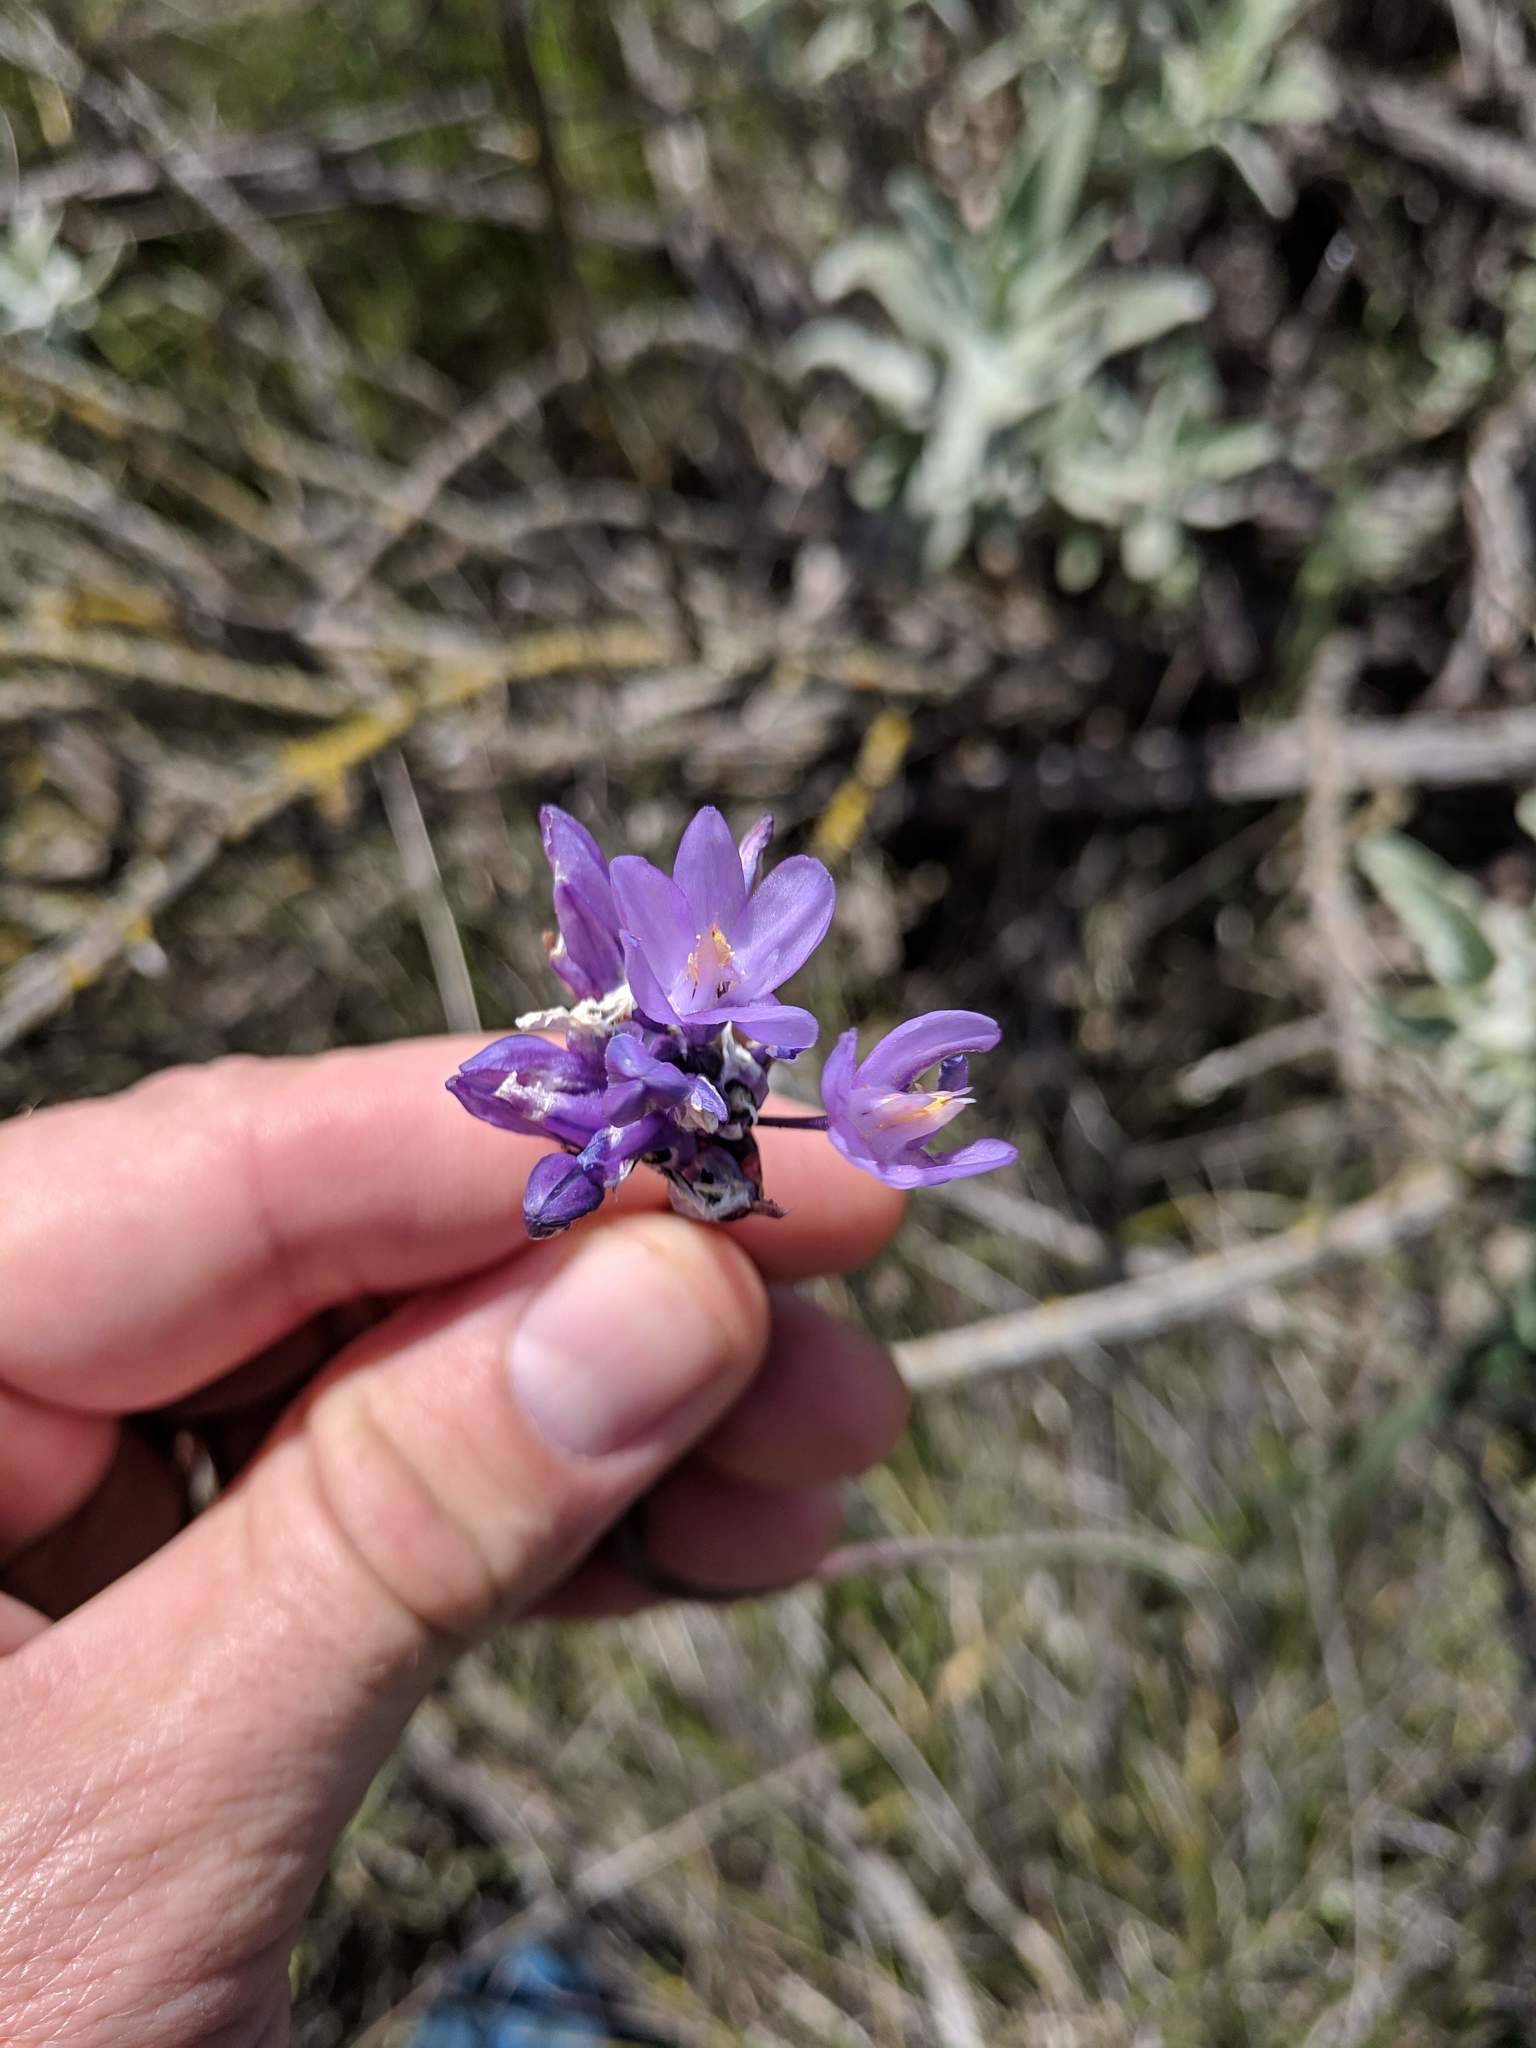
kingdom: Plantae
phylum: Tracheophyta
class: Liliopsida
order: Asparagales
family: Asparagaceae
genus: Dipterostemon
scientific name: Dipterostemon capitatus
